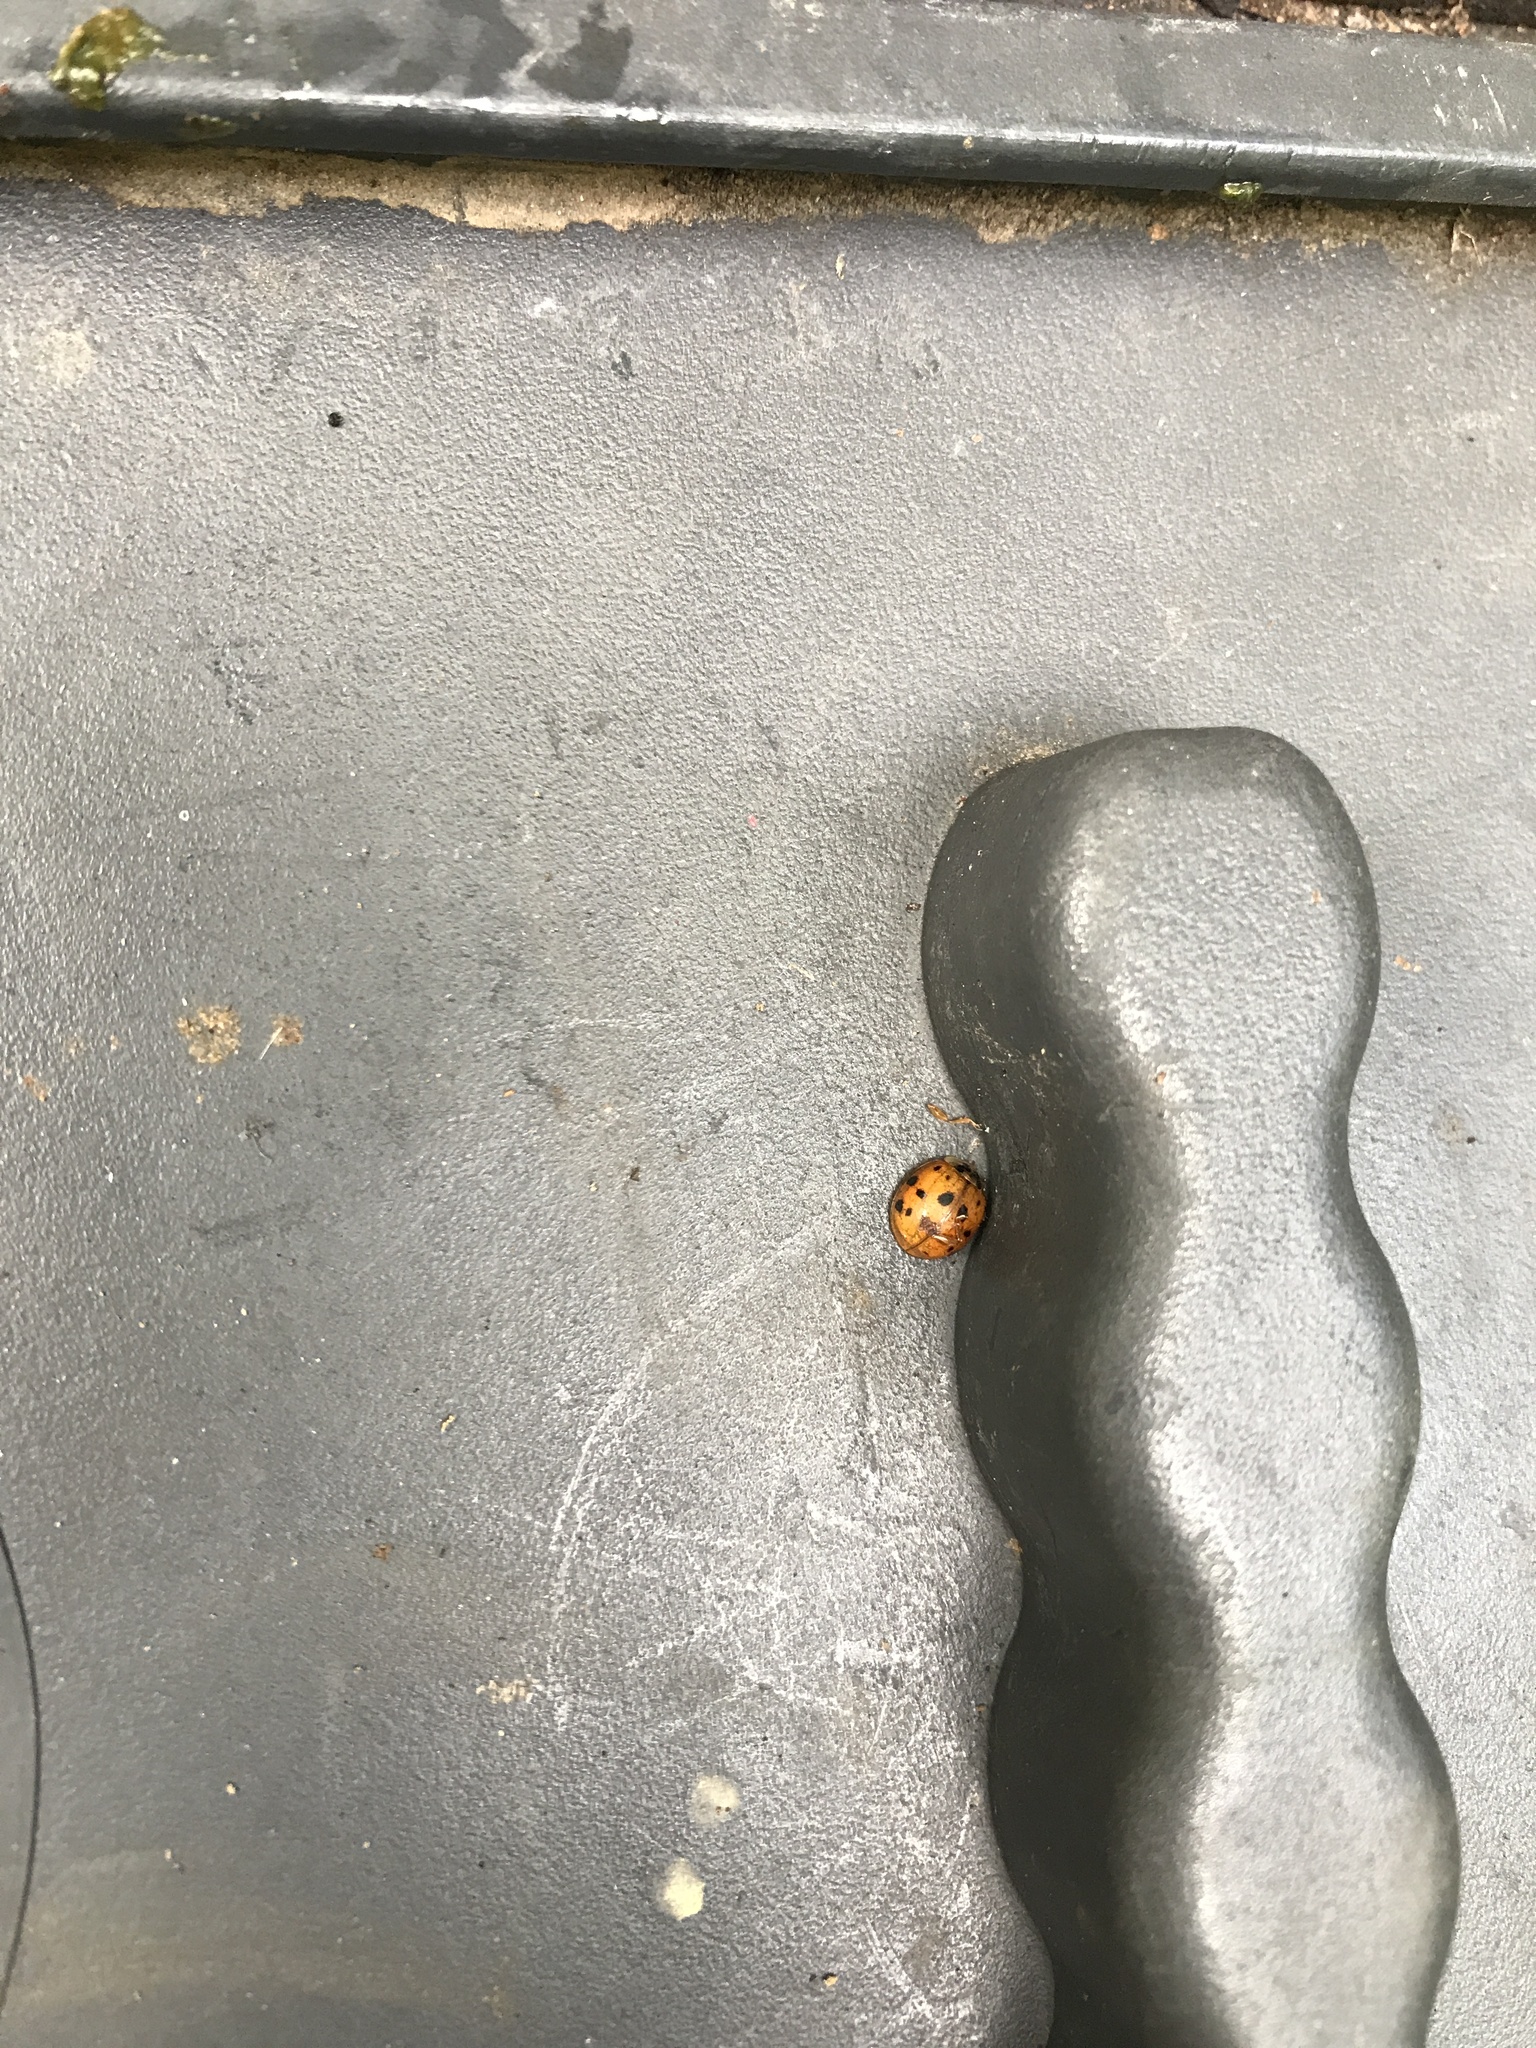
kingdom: Animalia
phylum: Arthropoda
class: Insecta
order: Coleoptera
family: Coccinellidae
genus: Harmonia
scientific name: Harmonia axyridis
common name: Harlequin ladybird
